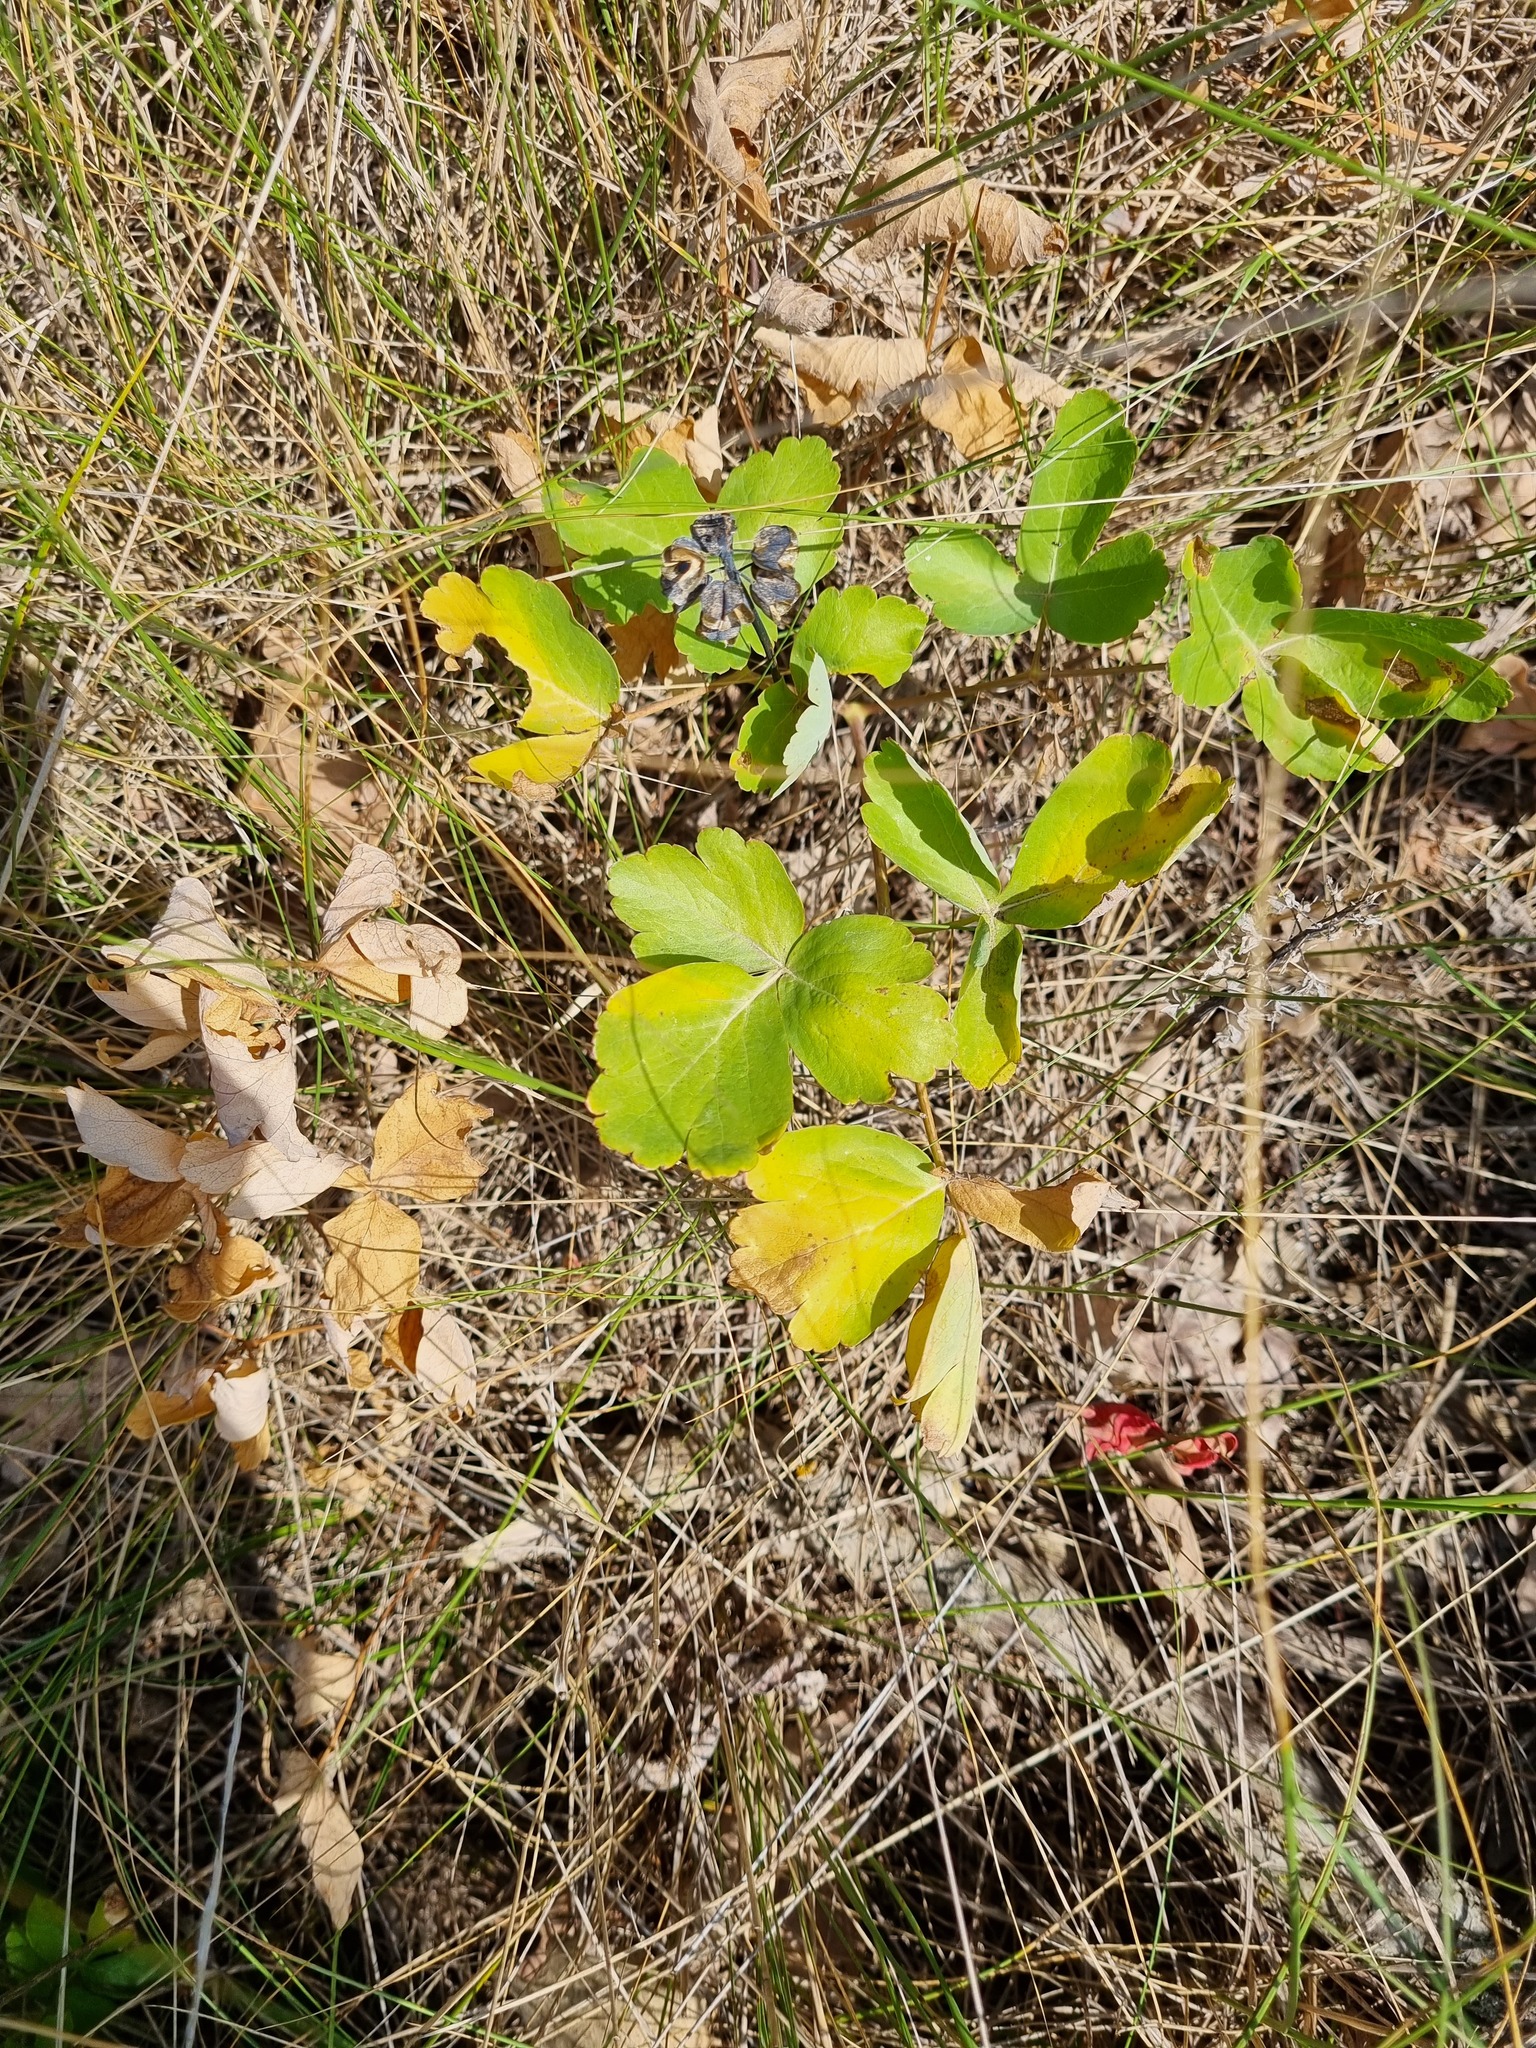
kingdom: Plantae
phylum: Tracheophyta
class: Magnoliopsida
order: Apiales
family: Apiaceae
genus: Laser
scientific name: Laser trilobum
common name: Laser
